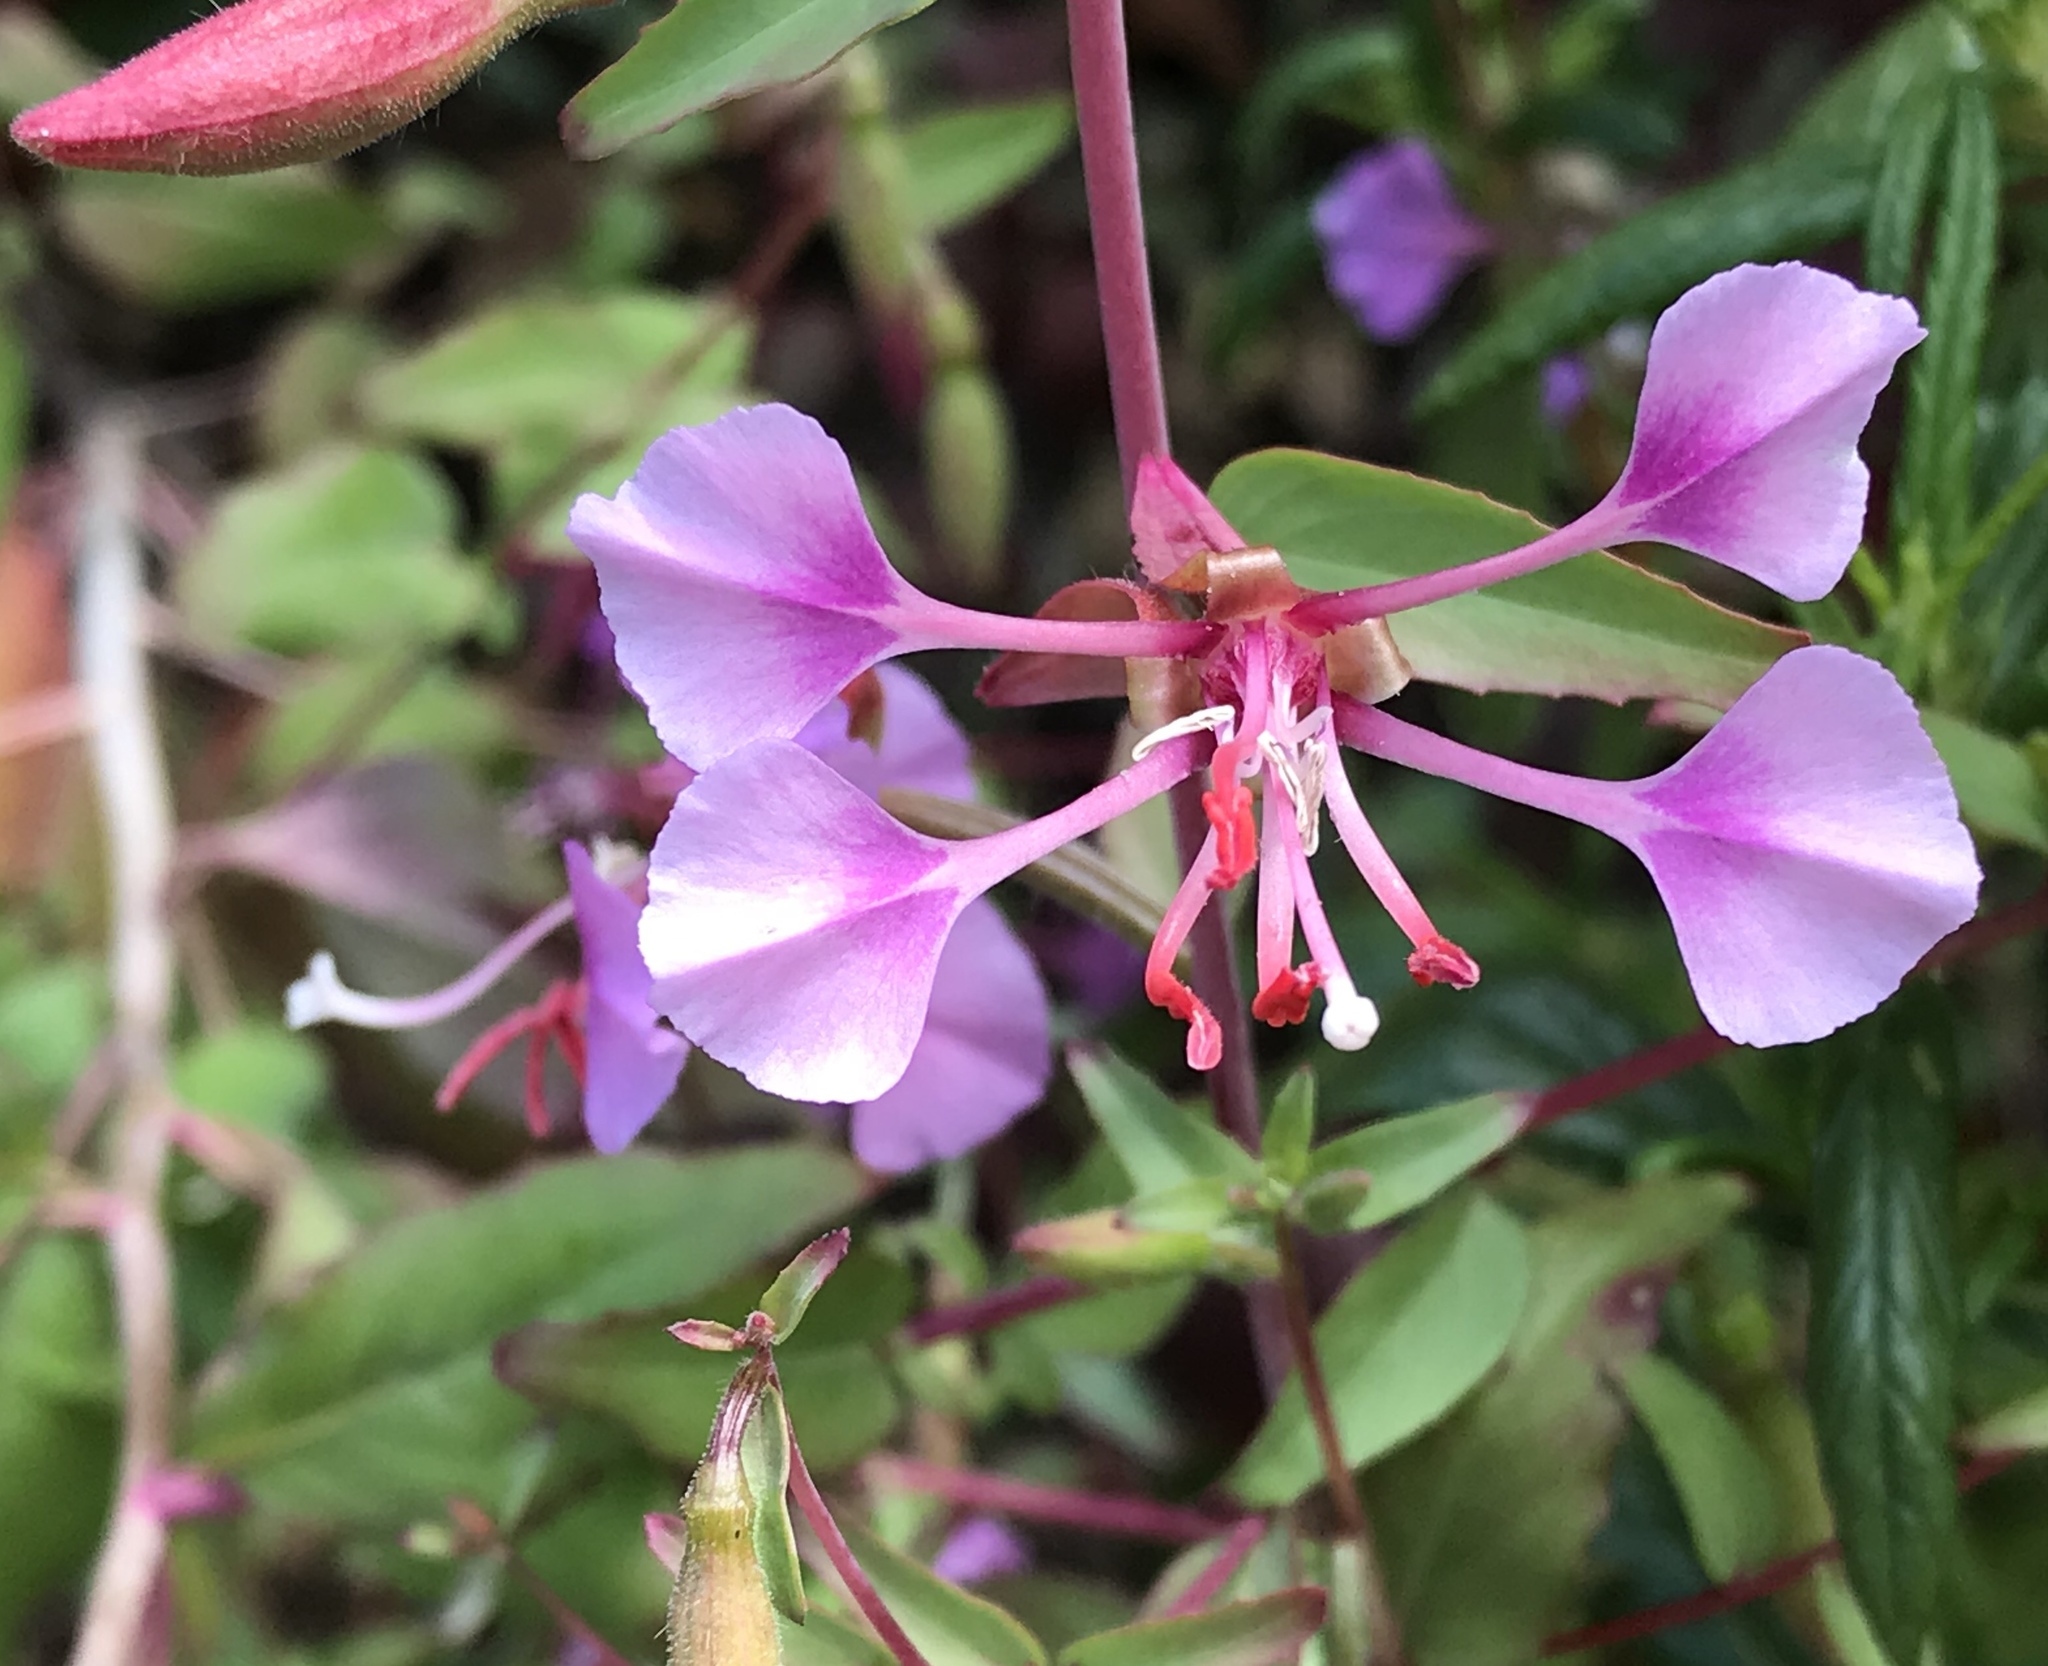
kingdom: Plantae
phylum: Tracheophyta
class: Magnoliopsida
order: Myrtales
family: Onagraceae
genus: Clarkia
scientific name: Clarkia unguiculata
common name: Clarkia
